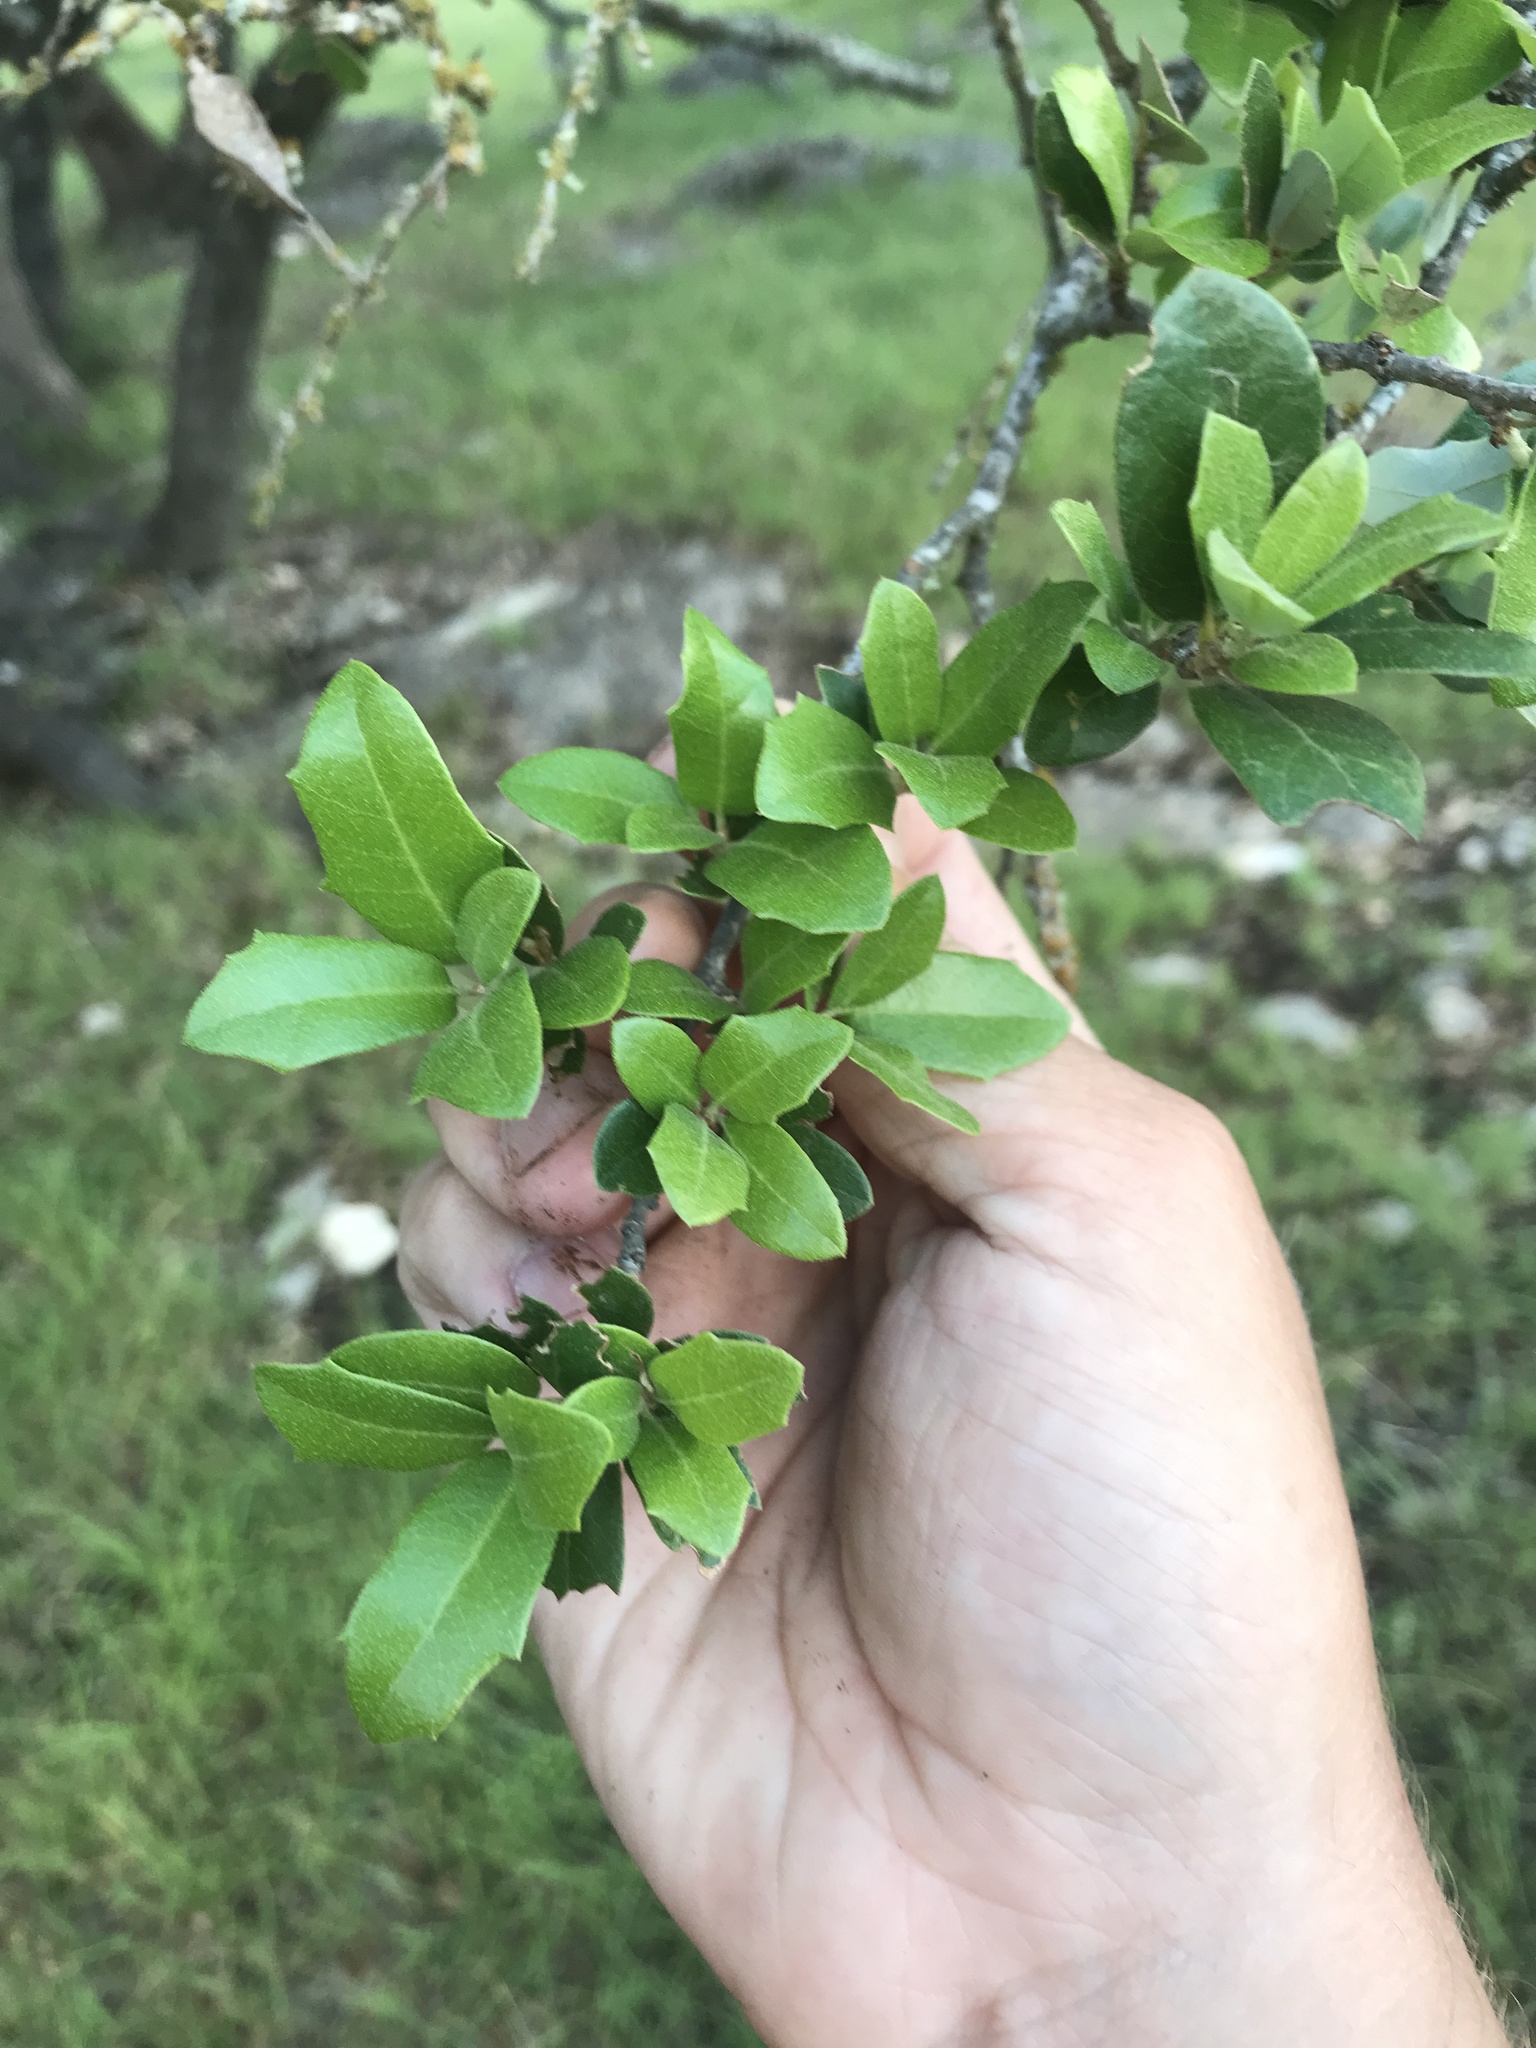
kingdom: Plantae
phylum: Tracheophyta
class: Magnoliopsida
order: Fagales
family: Fagaceae
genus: Quercus
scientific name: Quercus fusiformis
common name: Texas live oak
